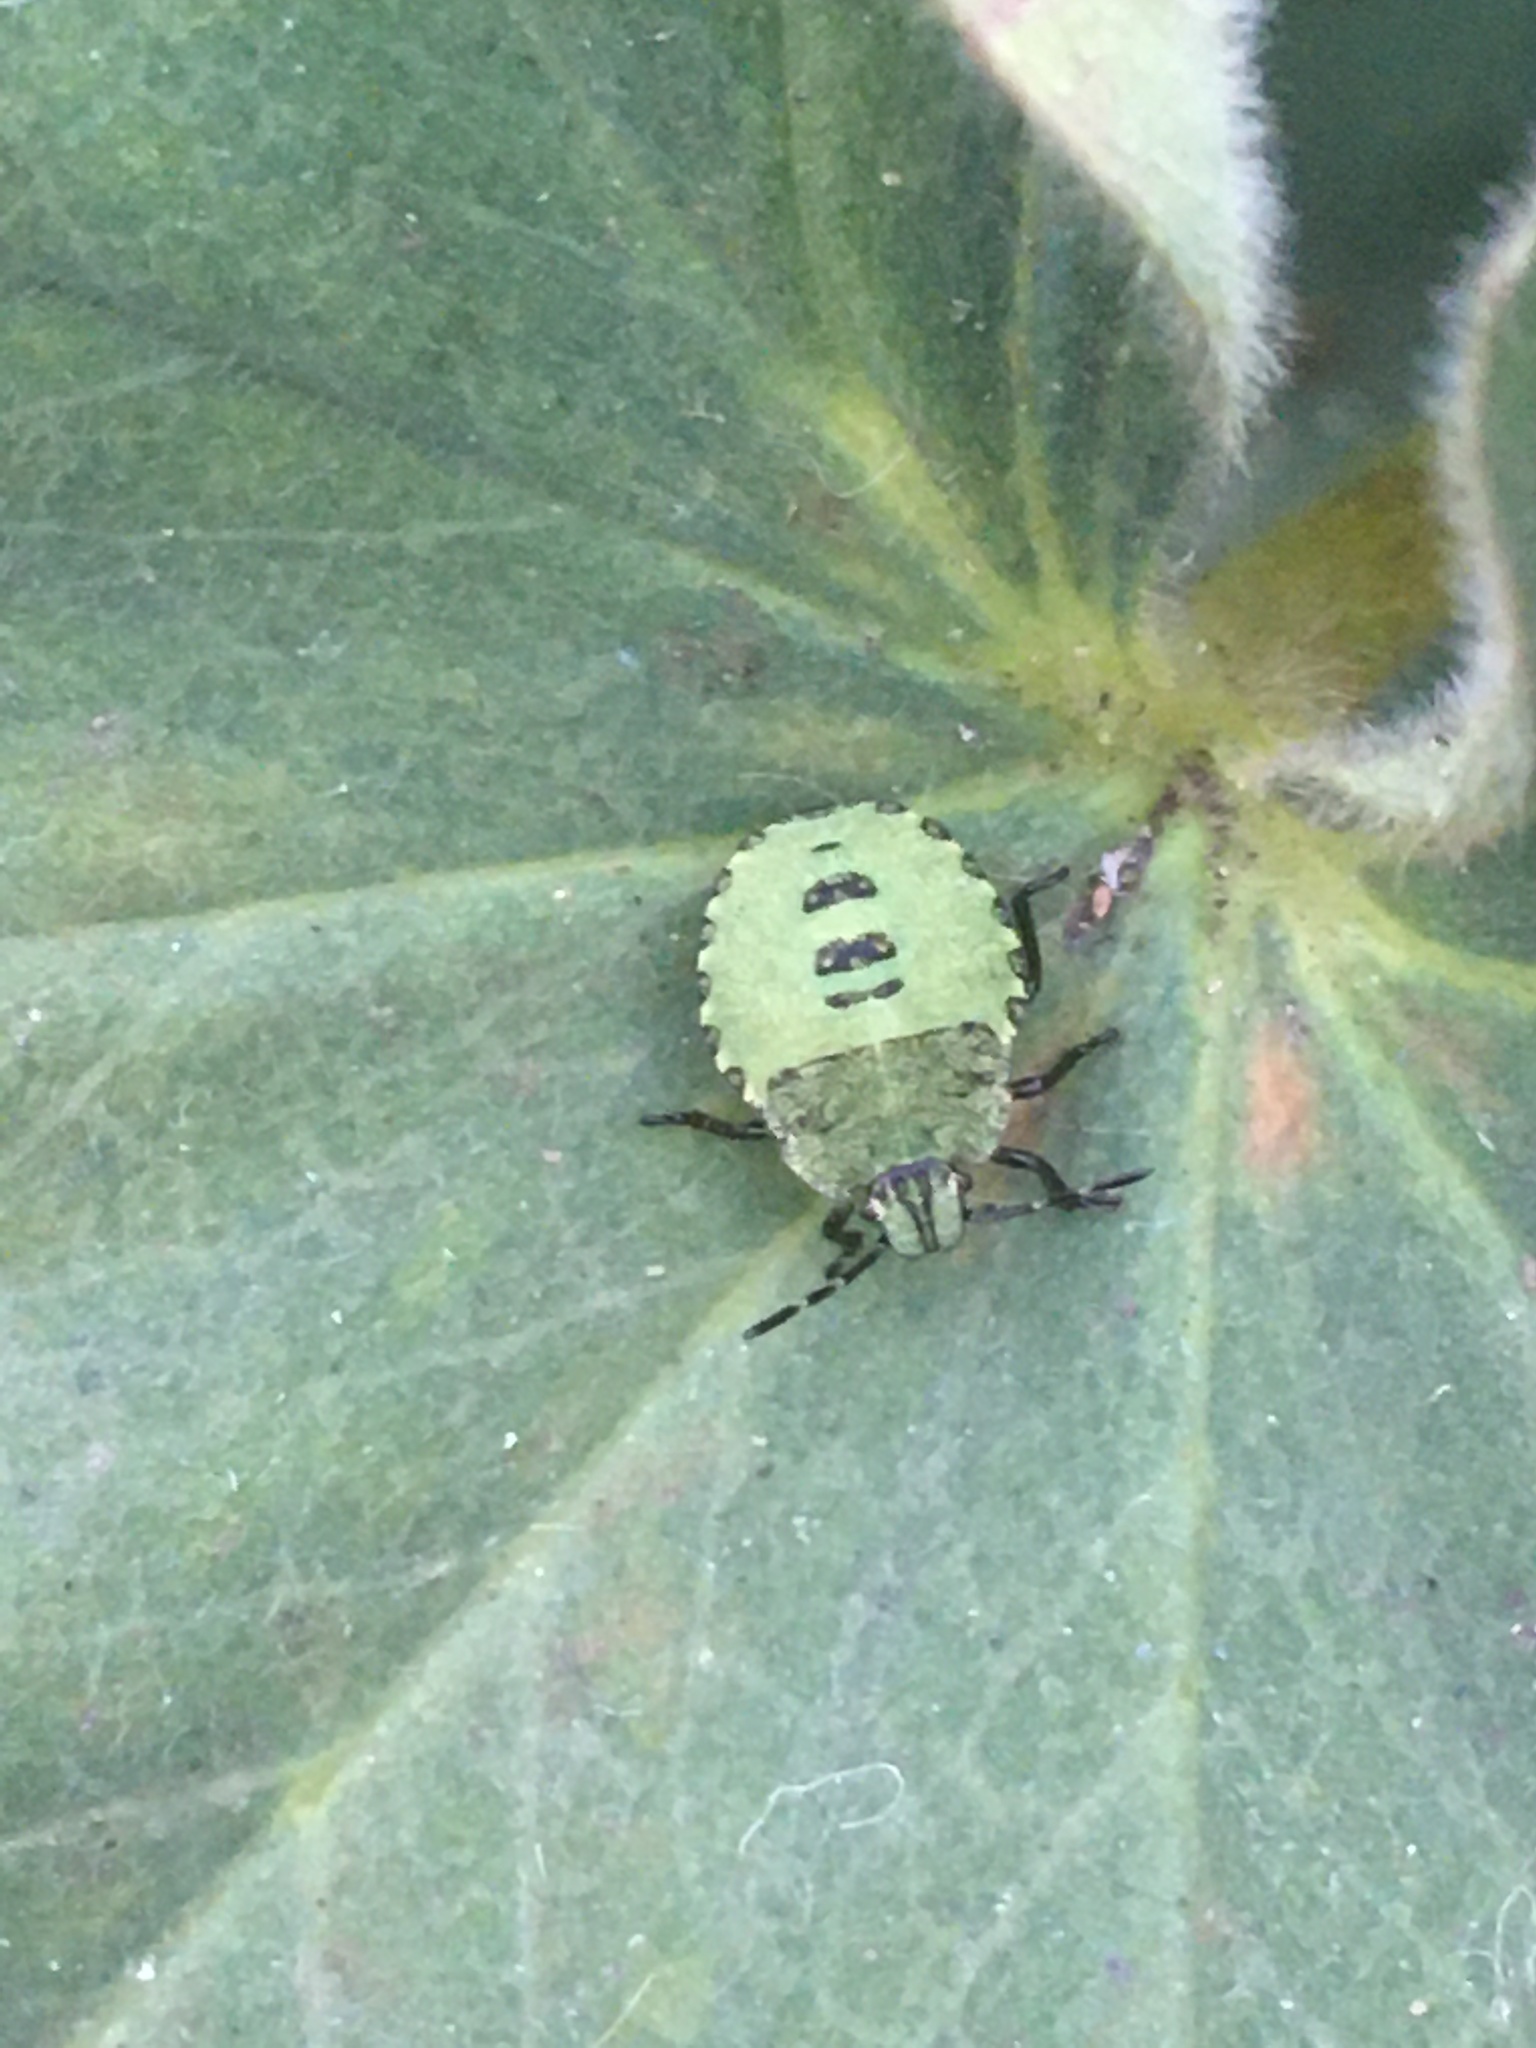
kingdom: Animalia
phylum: Arthropoda
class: Insecta
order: Hemiptera
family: Pentatomidae
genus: Palomena
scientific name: Palomena prasina
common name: Green shieldbug
